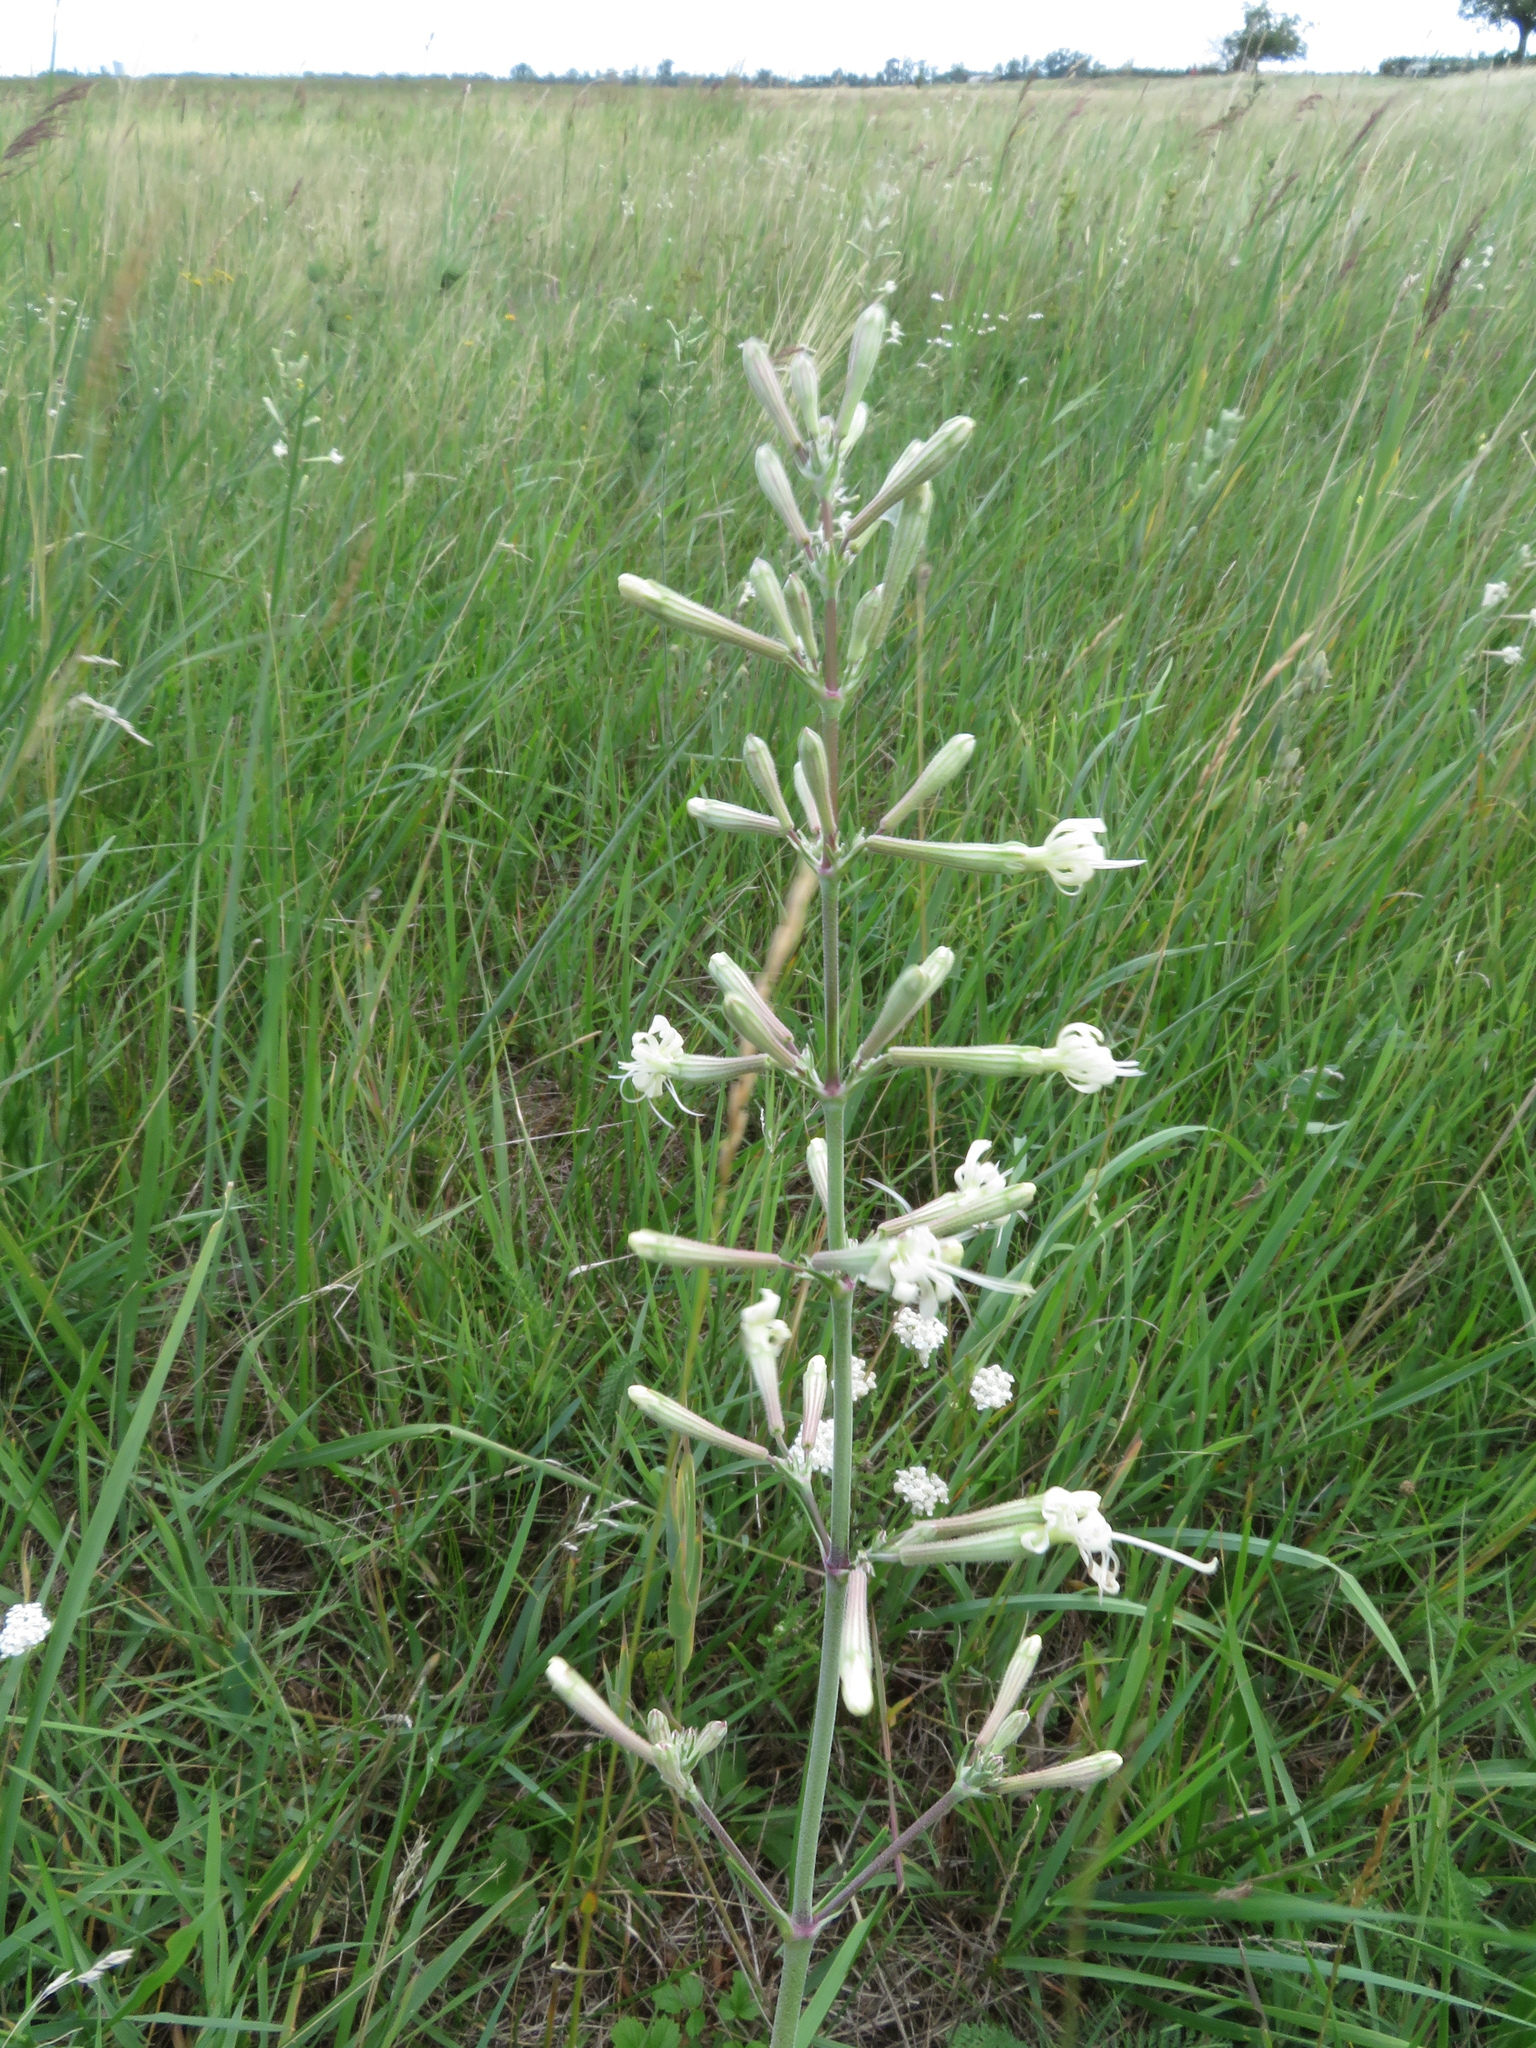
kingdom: Plantae
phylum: Tracheophyta
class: Magnoliopsida
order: Caryophyllales
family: Caryophyllaceae
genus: Silene
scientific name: Silene multiflora
